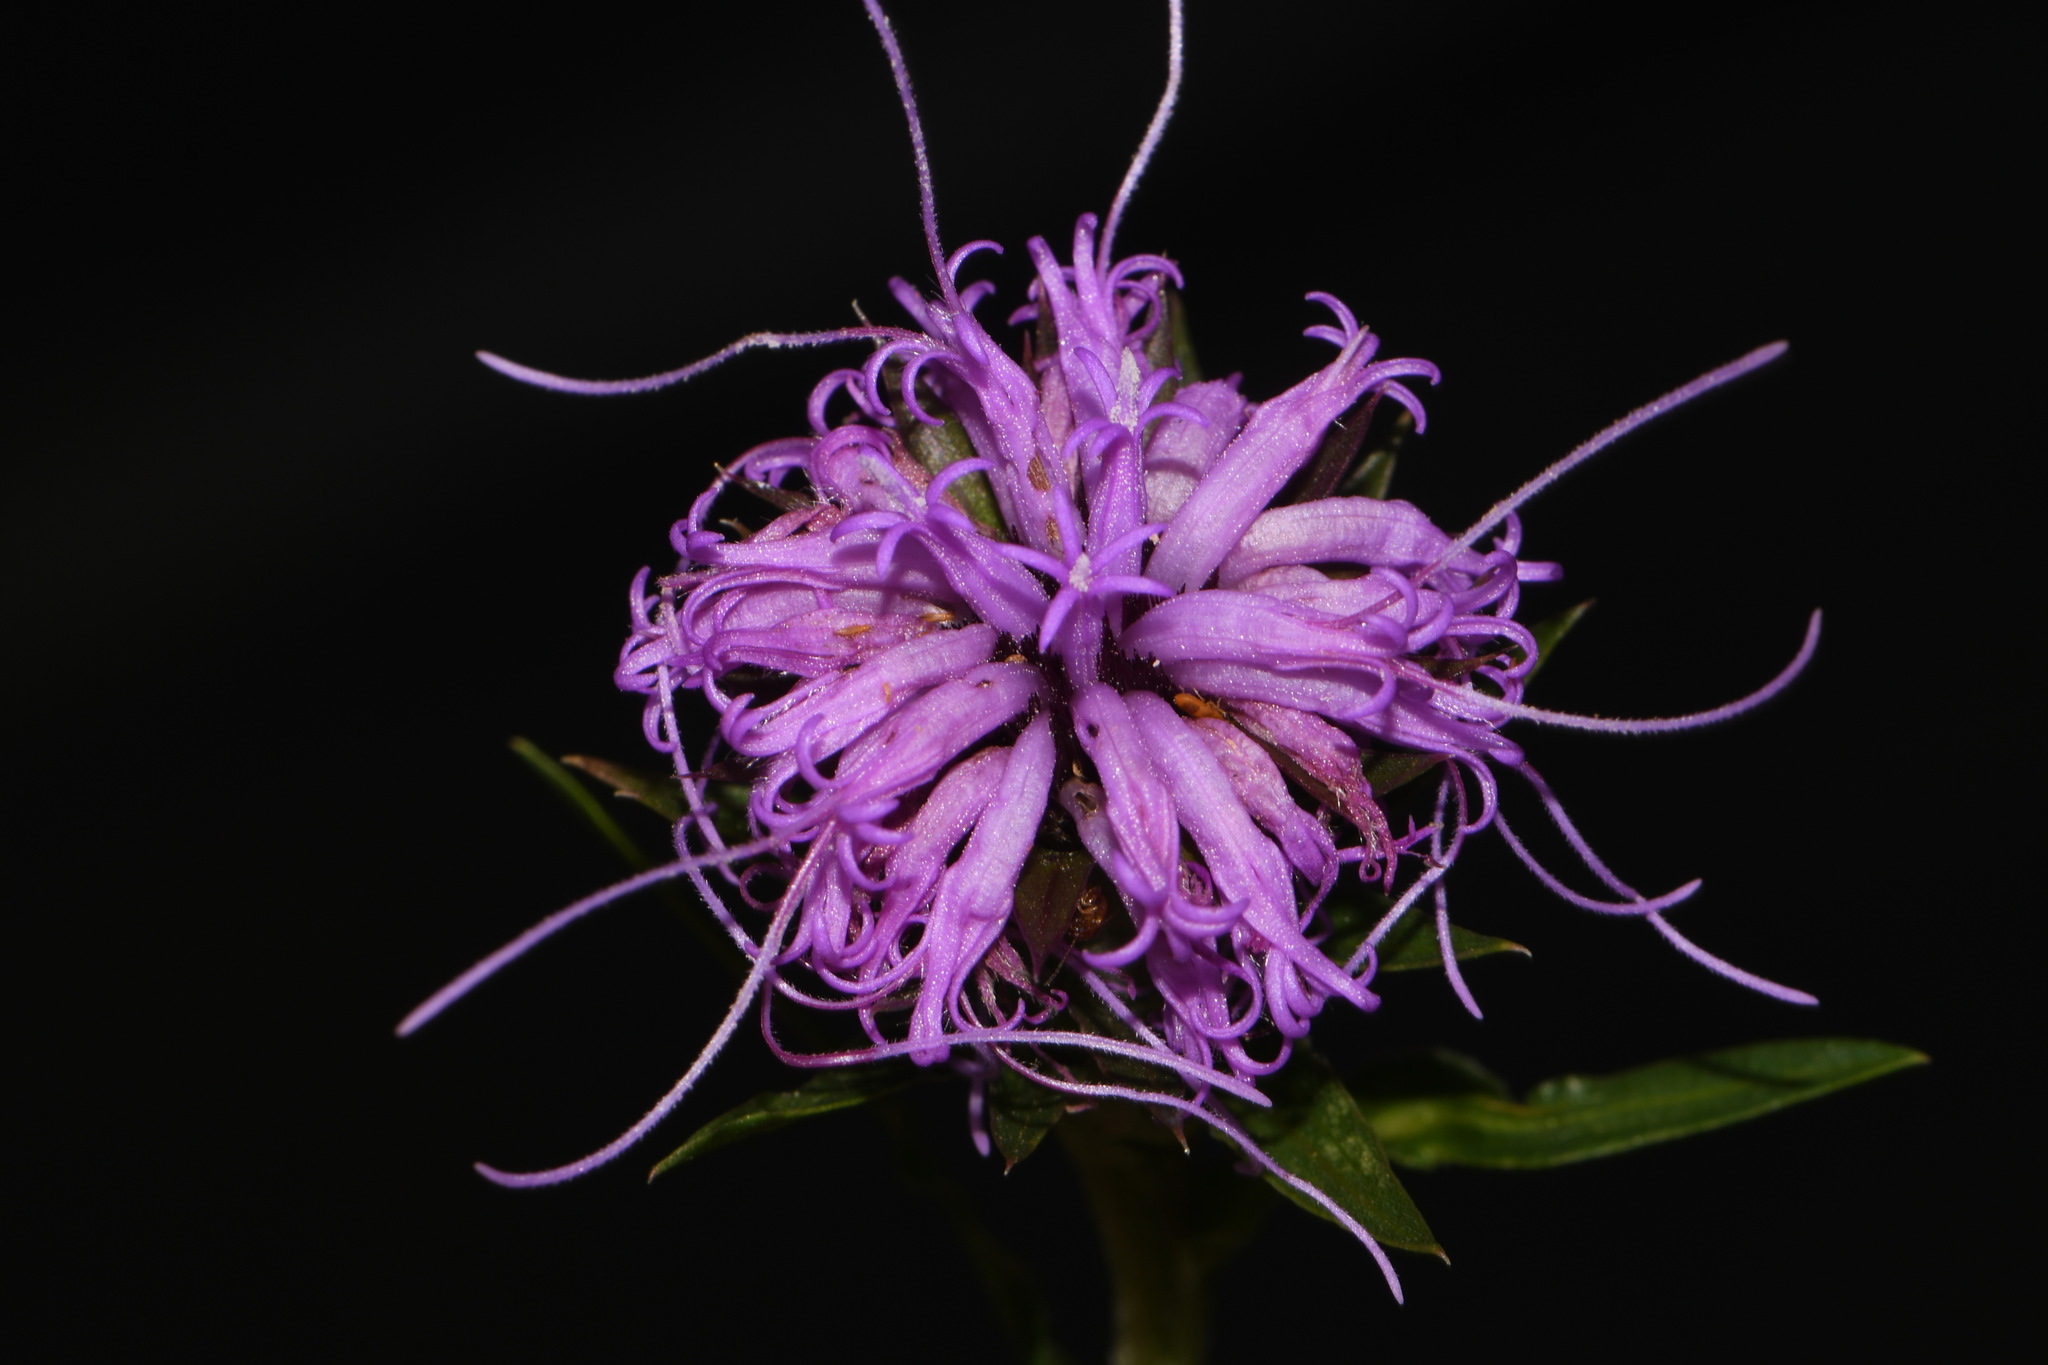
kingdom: Plantae
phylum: Tracheophyta
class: Magnoliopsida
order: Asterales
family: Asteraceae
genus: Liatris
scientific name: Liatris squarrosa
